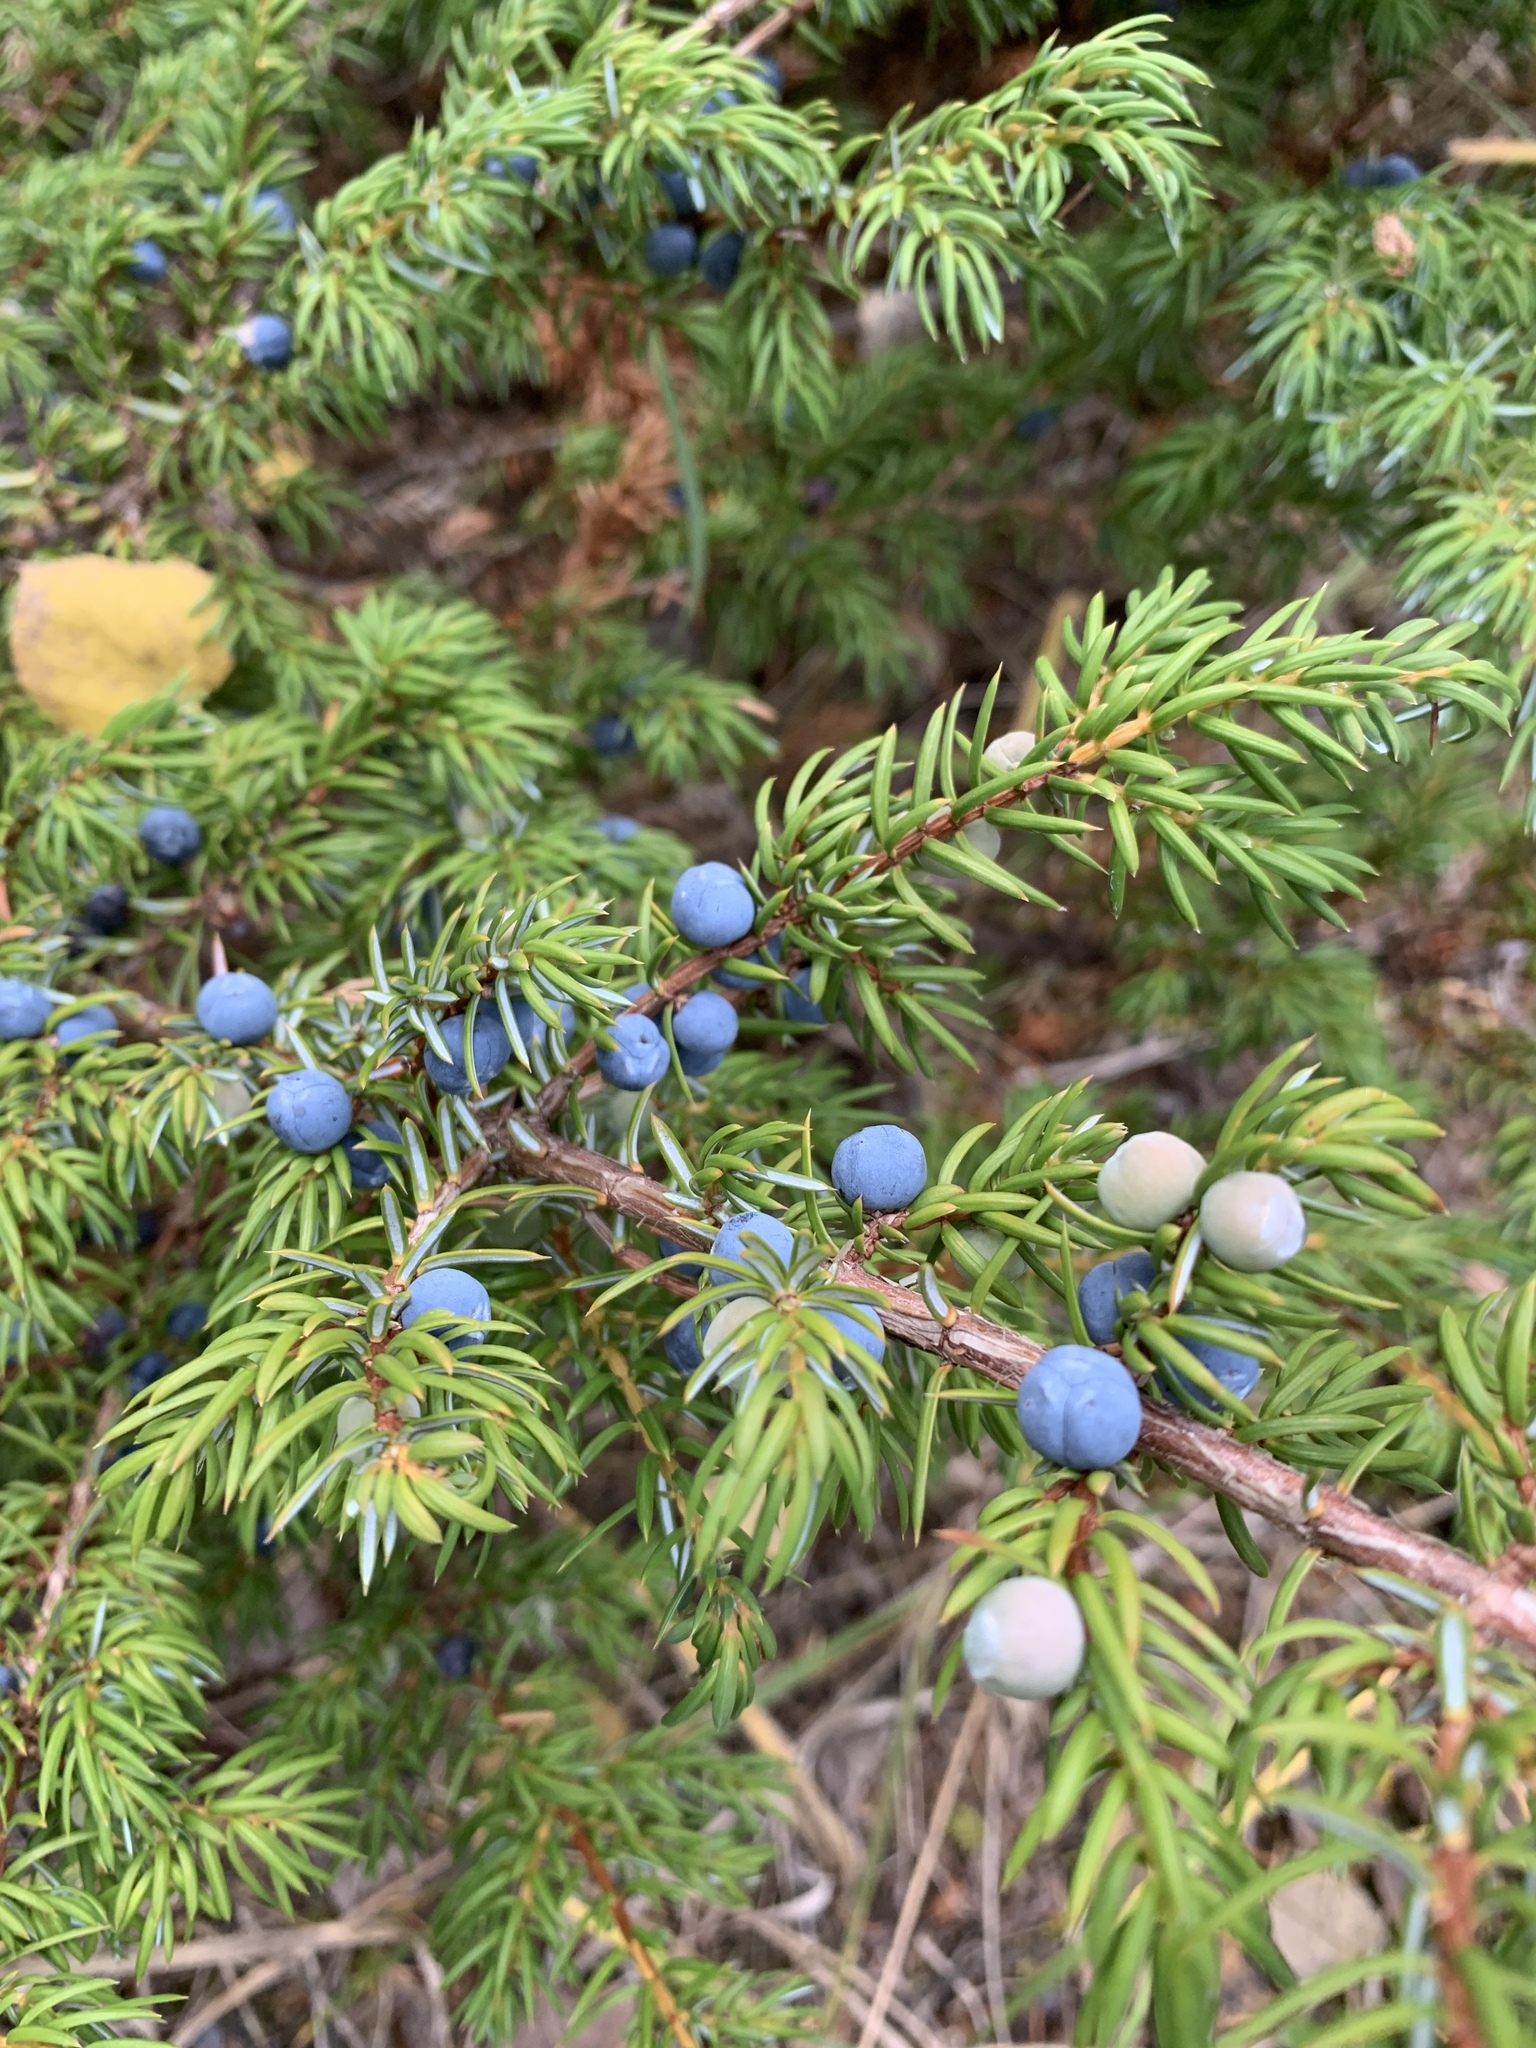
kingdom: Plantae
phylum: Tracheophyta
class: Pinopsida
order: Pinales
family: Cupressaceae
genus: Juniperus
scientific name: Juniperus communis
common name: Common juniper
